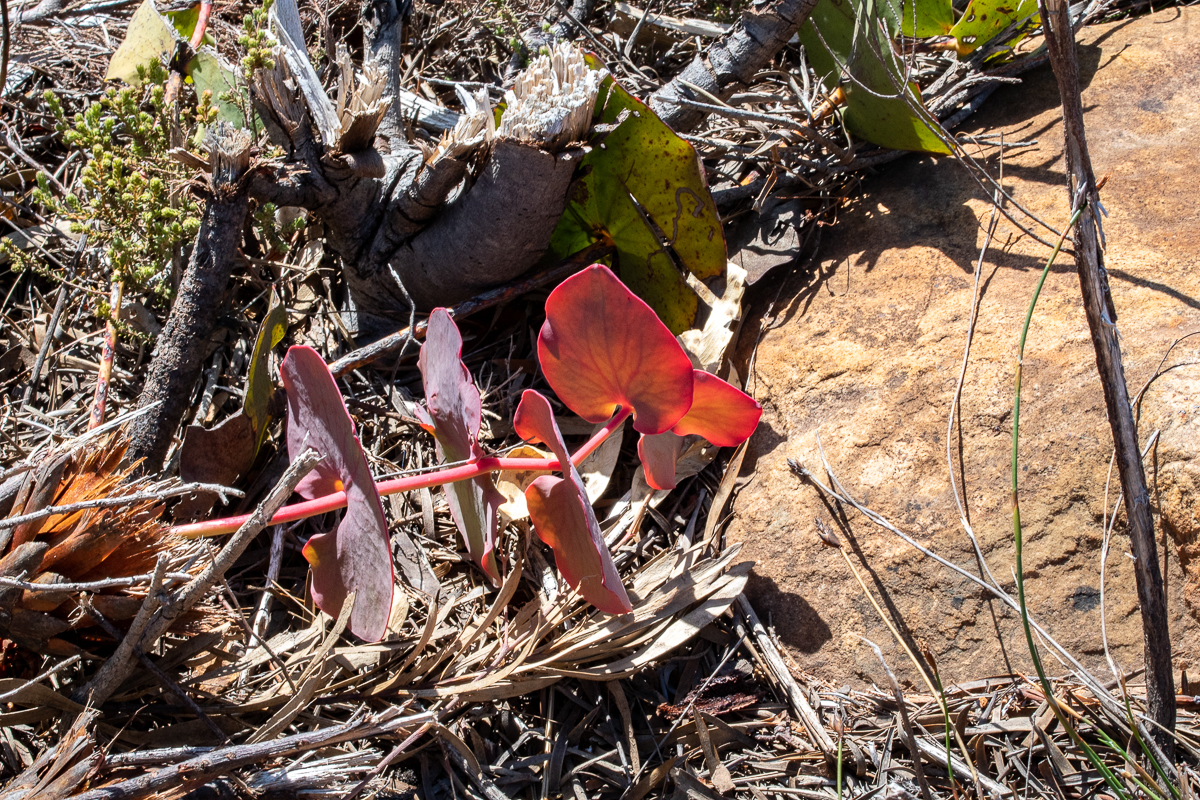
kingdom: Plantae
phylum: Tracheophyta
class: Magnoliopsida
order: Proteales
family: Proteaceae
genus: Protea
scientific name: Protea cordata
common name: Heart-leaf sugarbush
